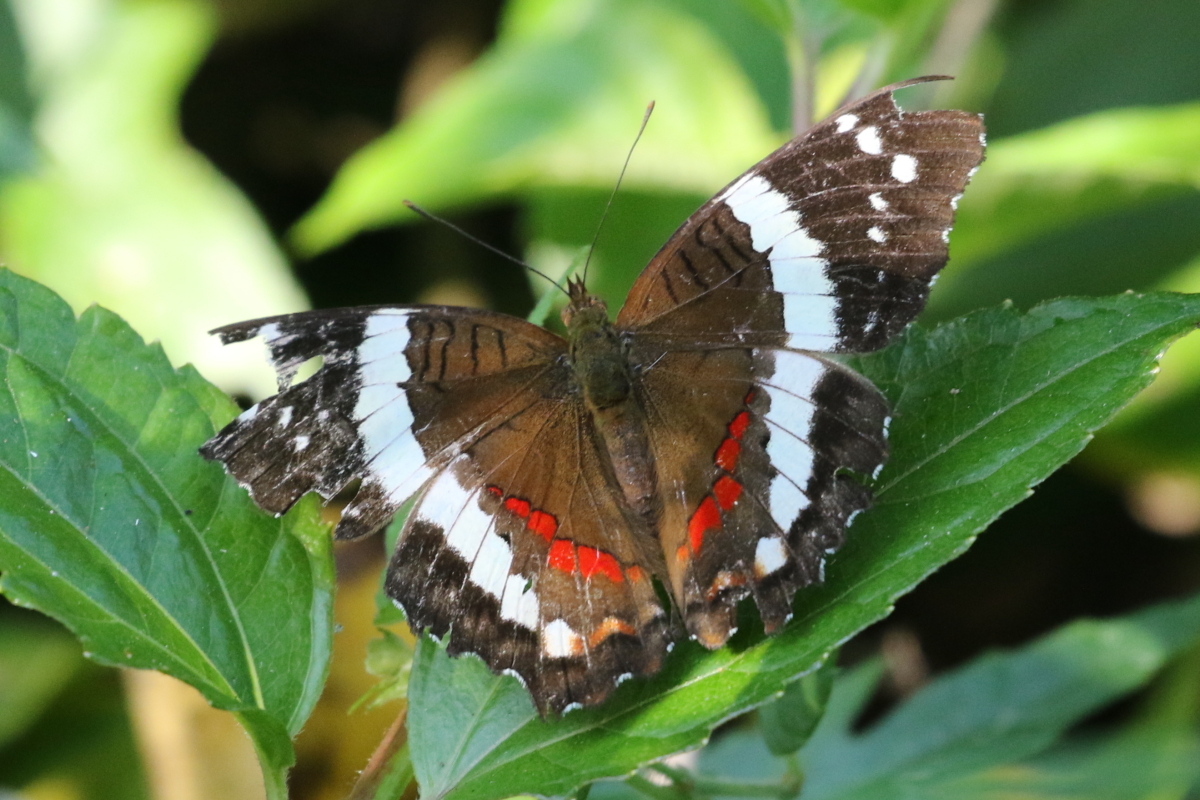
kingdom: Animalia
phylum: Arthropoda
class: Insecta
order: Lepidoptera
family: Nymphalidae
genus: Anartia
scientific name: Anartia fatima
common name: Banded peacock
